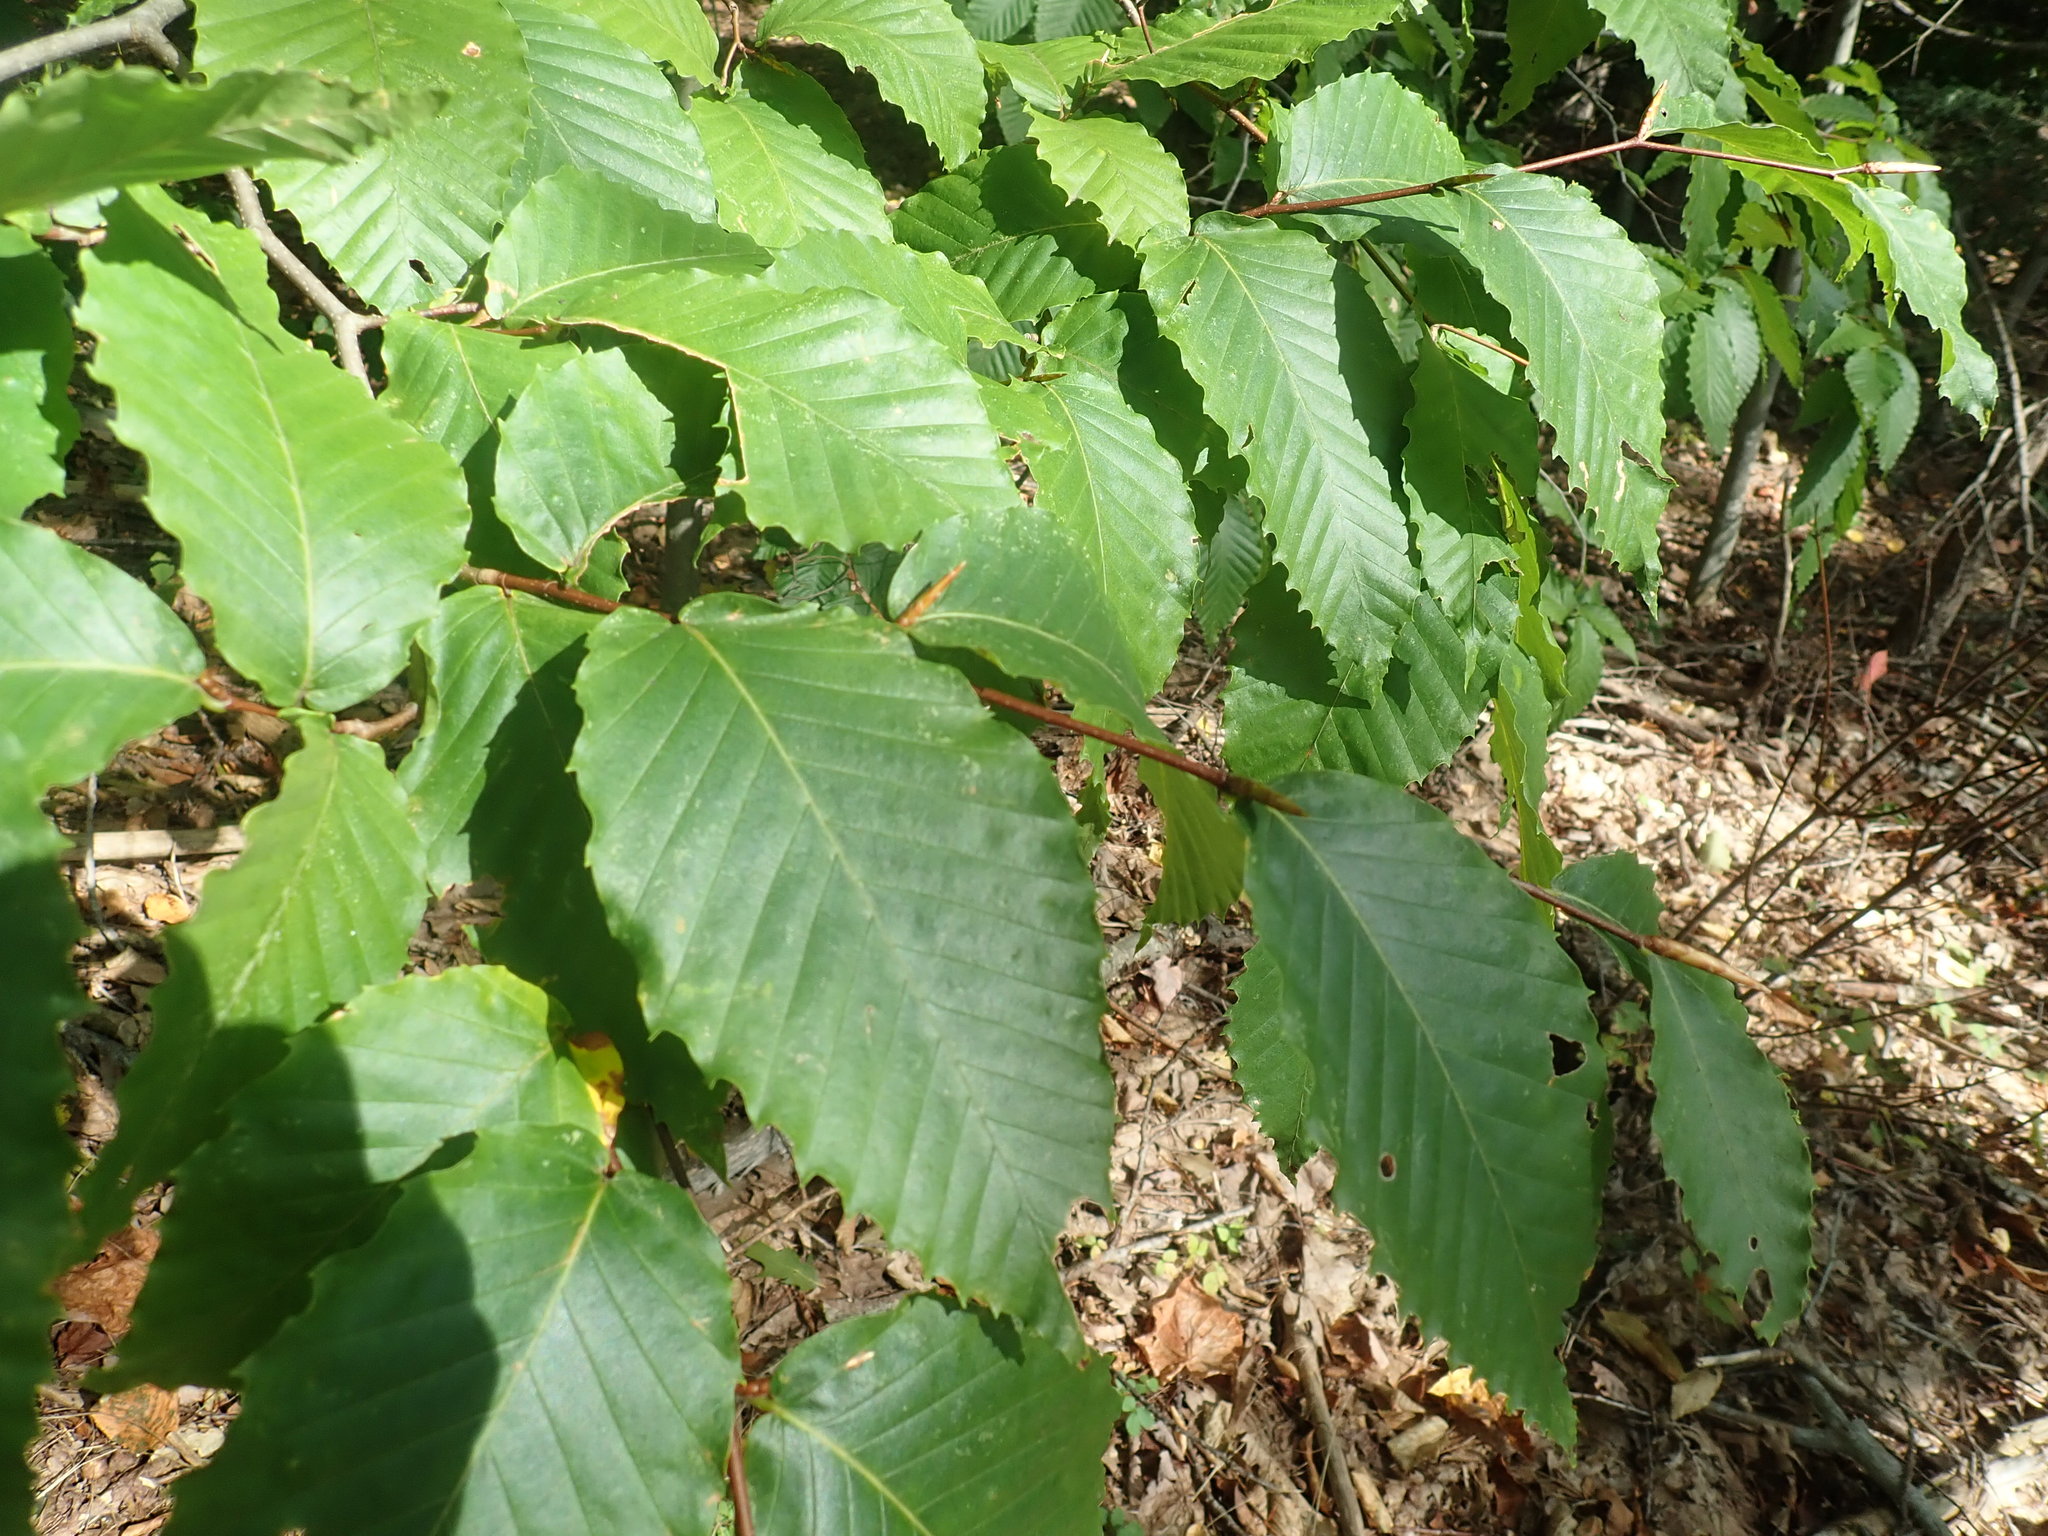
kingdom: Plantae
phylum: Tracheophyta
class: Magnoliopsida
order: Fagales
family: Fagaceae
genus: Fagus
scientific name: Fagus grandifolia
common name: American beech
